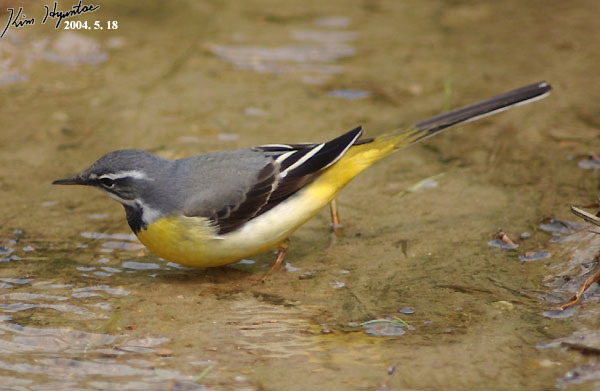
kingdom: Animalia
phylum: Chordata
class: Aves
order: Passeriformes
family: Motacillidae
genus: Motacilla
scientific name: Motacilla cinerea
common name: Grey wagtail
